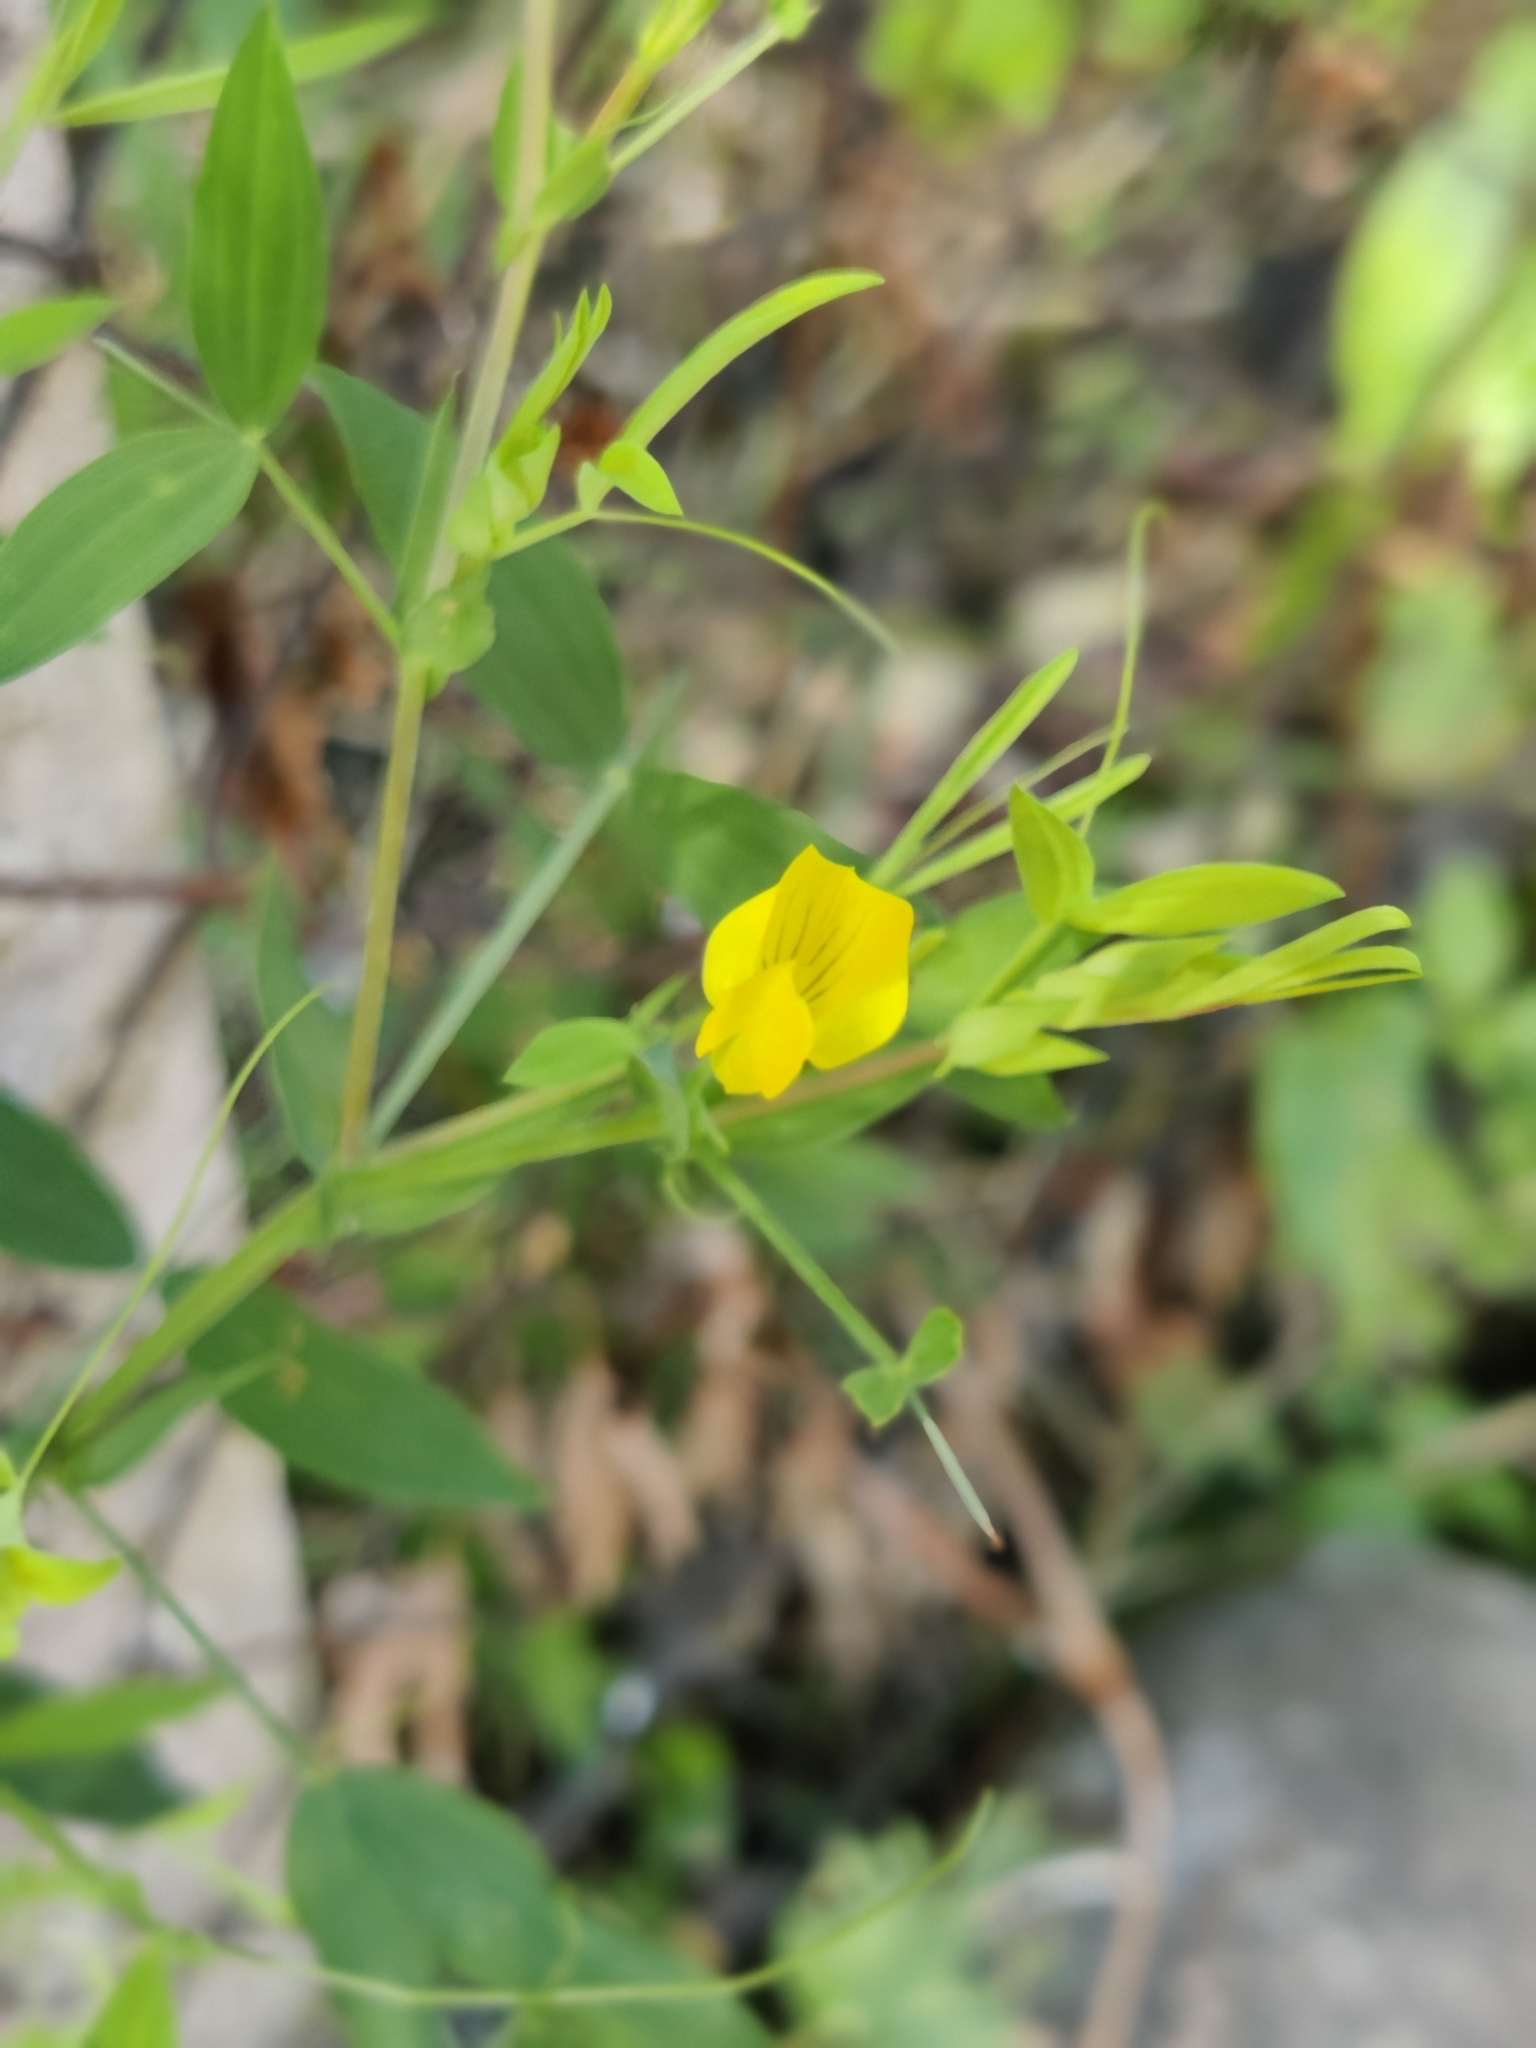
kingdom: Plantae
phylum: Tracheophyta
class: Magnoliopsida
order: Fabales
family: Fabaceae
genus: Lathyrus
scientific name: Lathyrus pratensis
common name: Meadow vetchling
